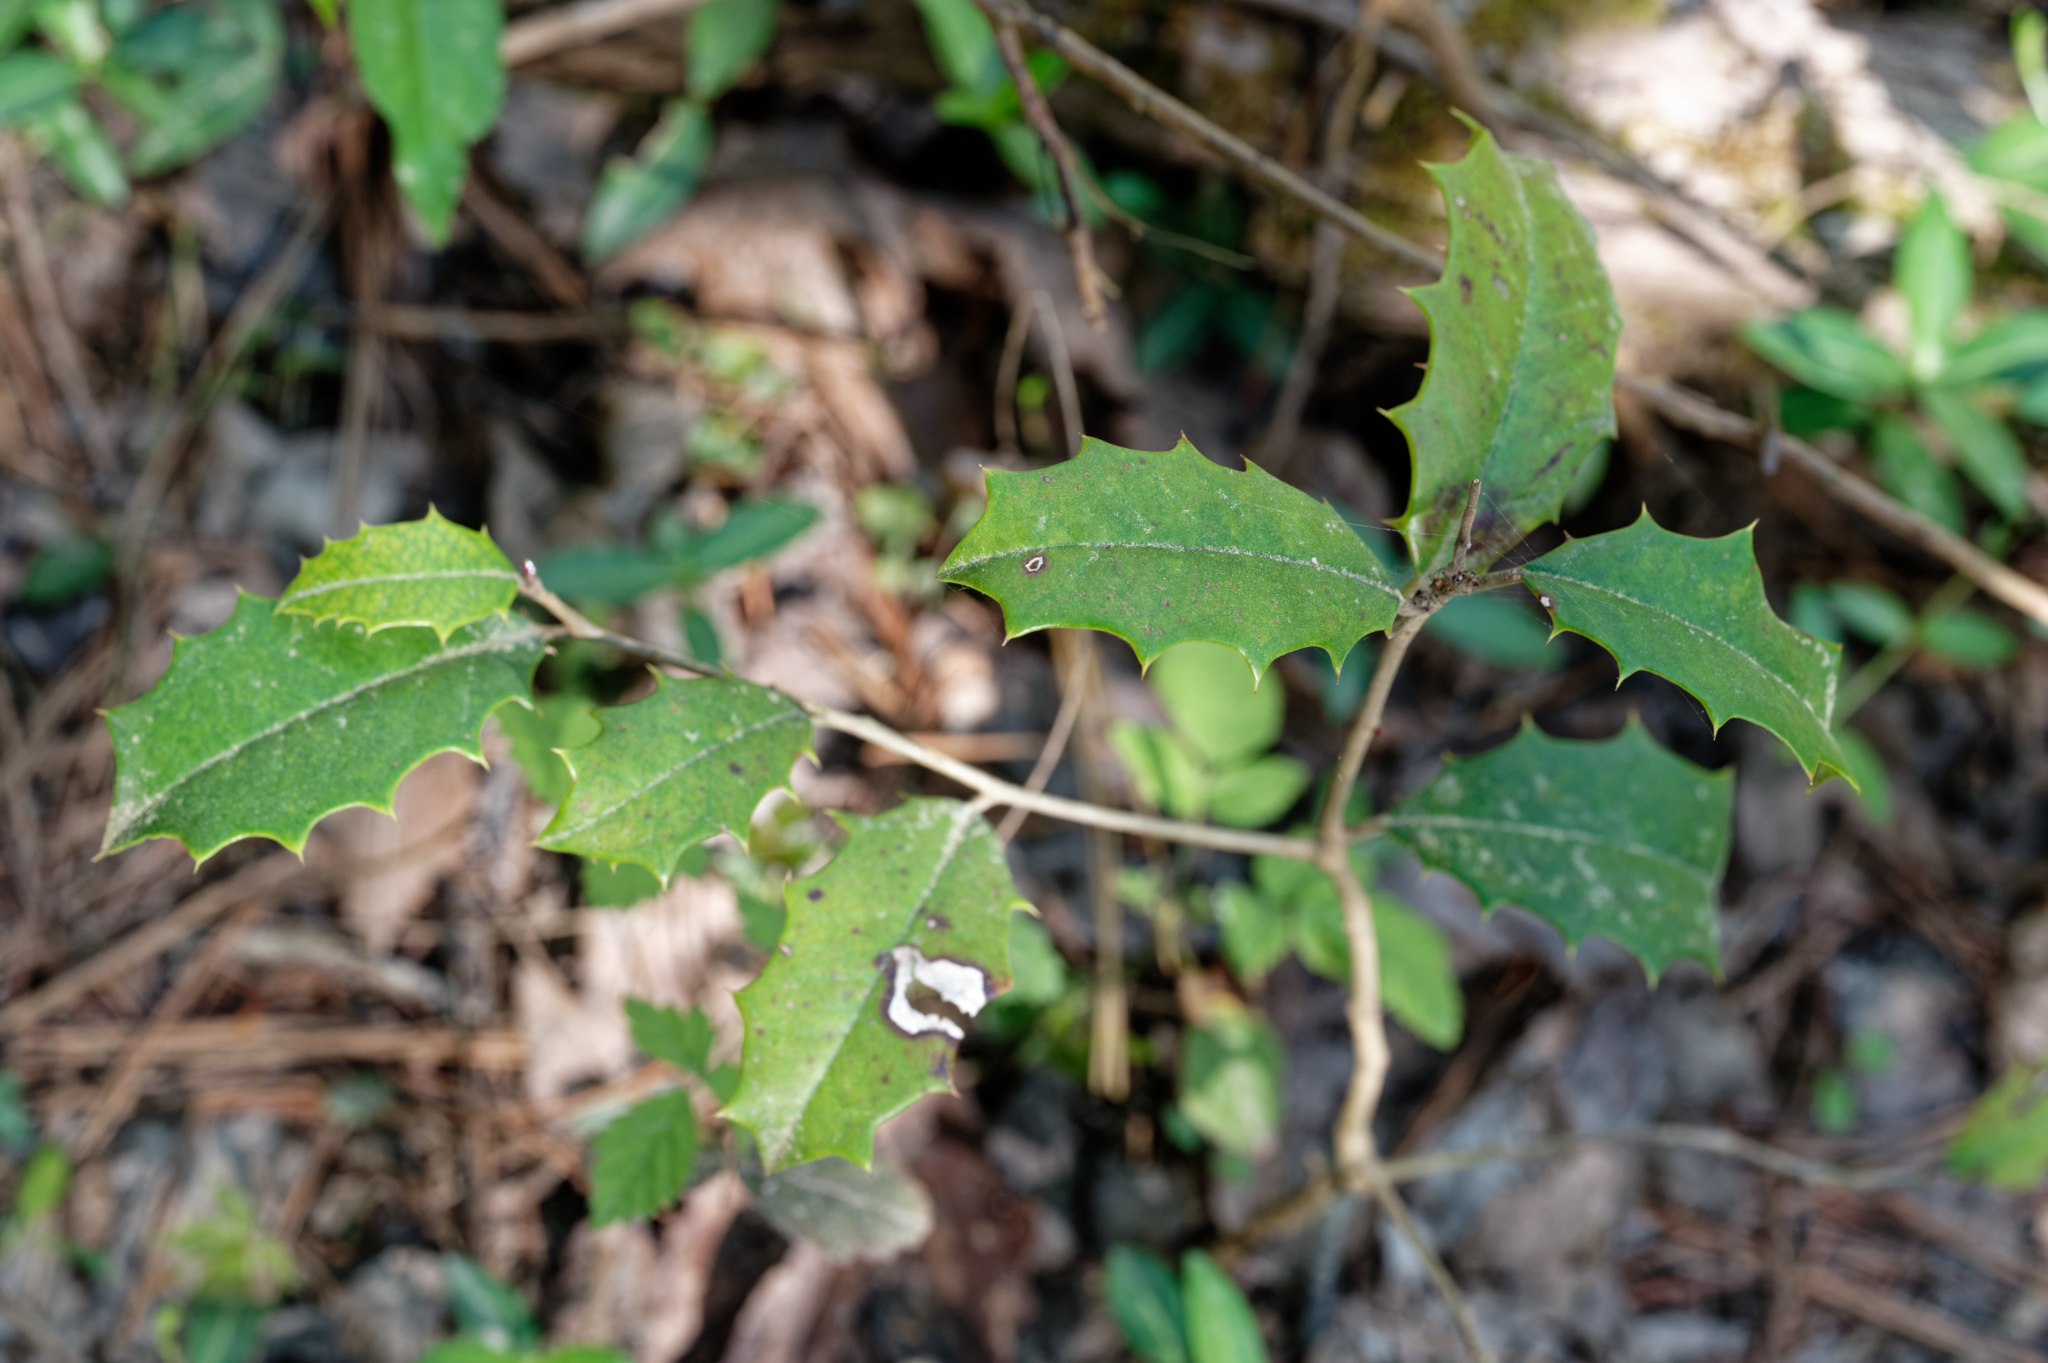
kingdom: Plantae
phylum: Tracheophyta
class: Magnoliopsida
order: Aquifoliales
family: Aquifoliaceae
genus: Ilex
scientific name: Ilex opaca
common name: American holly
